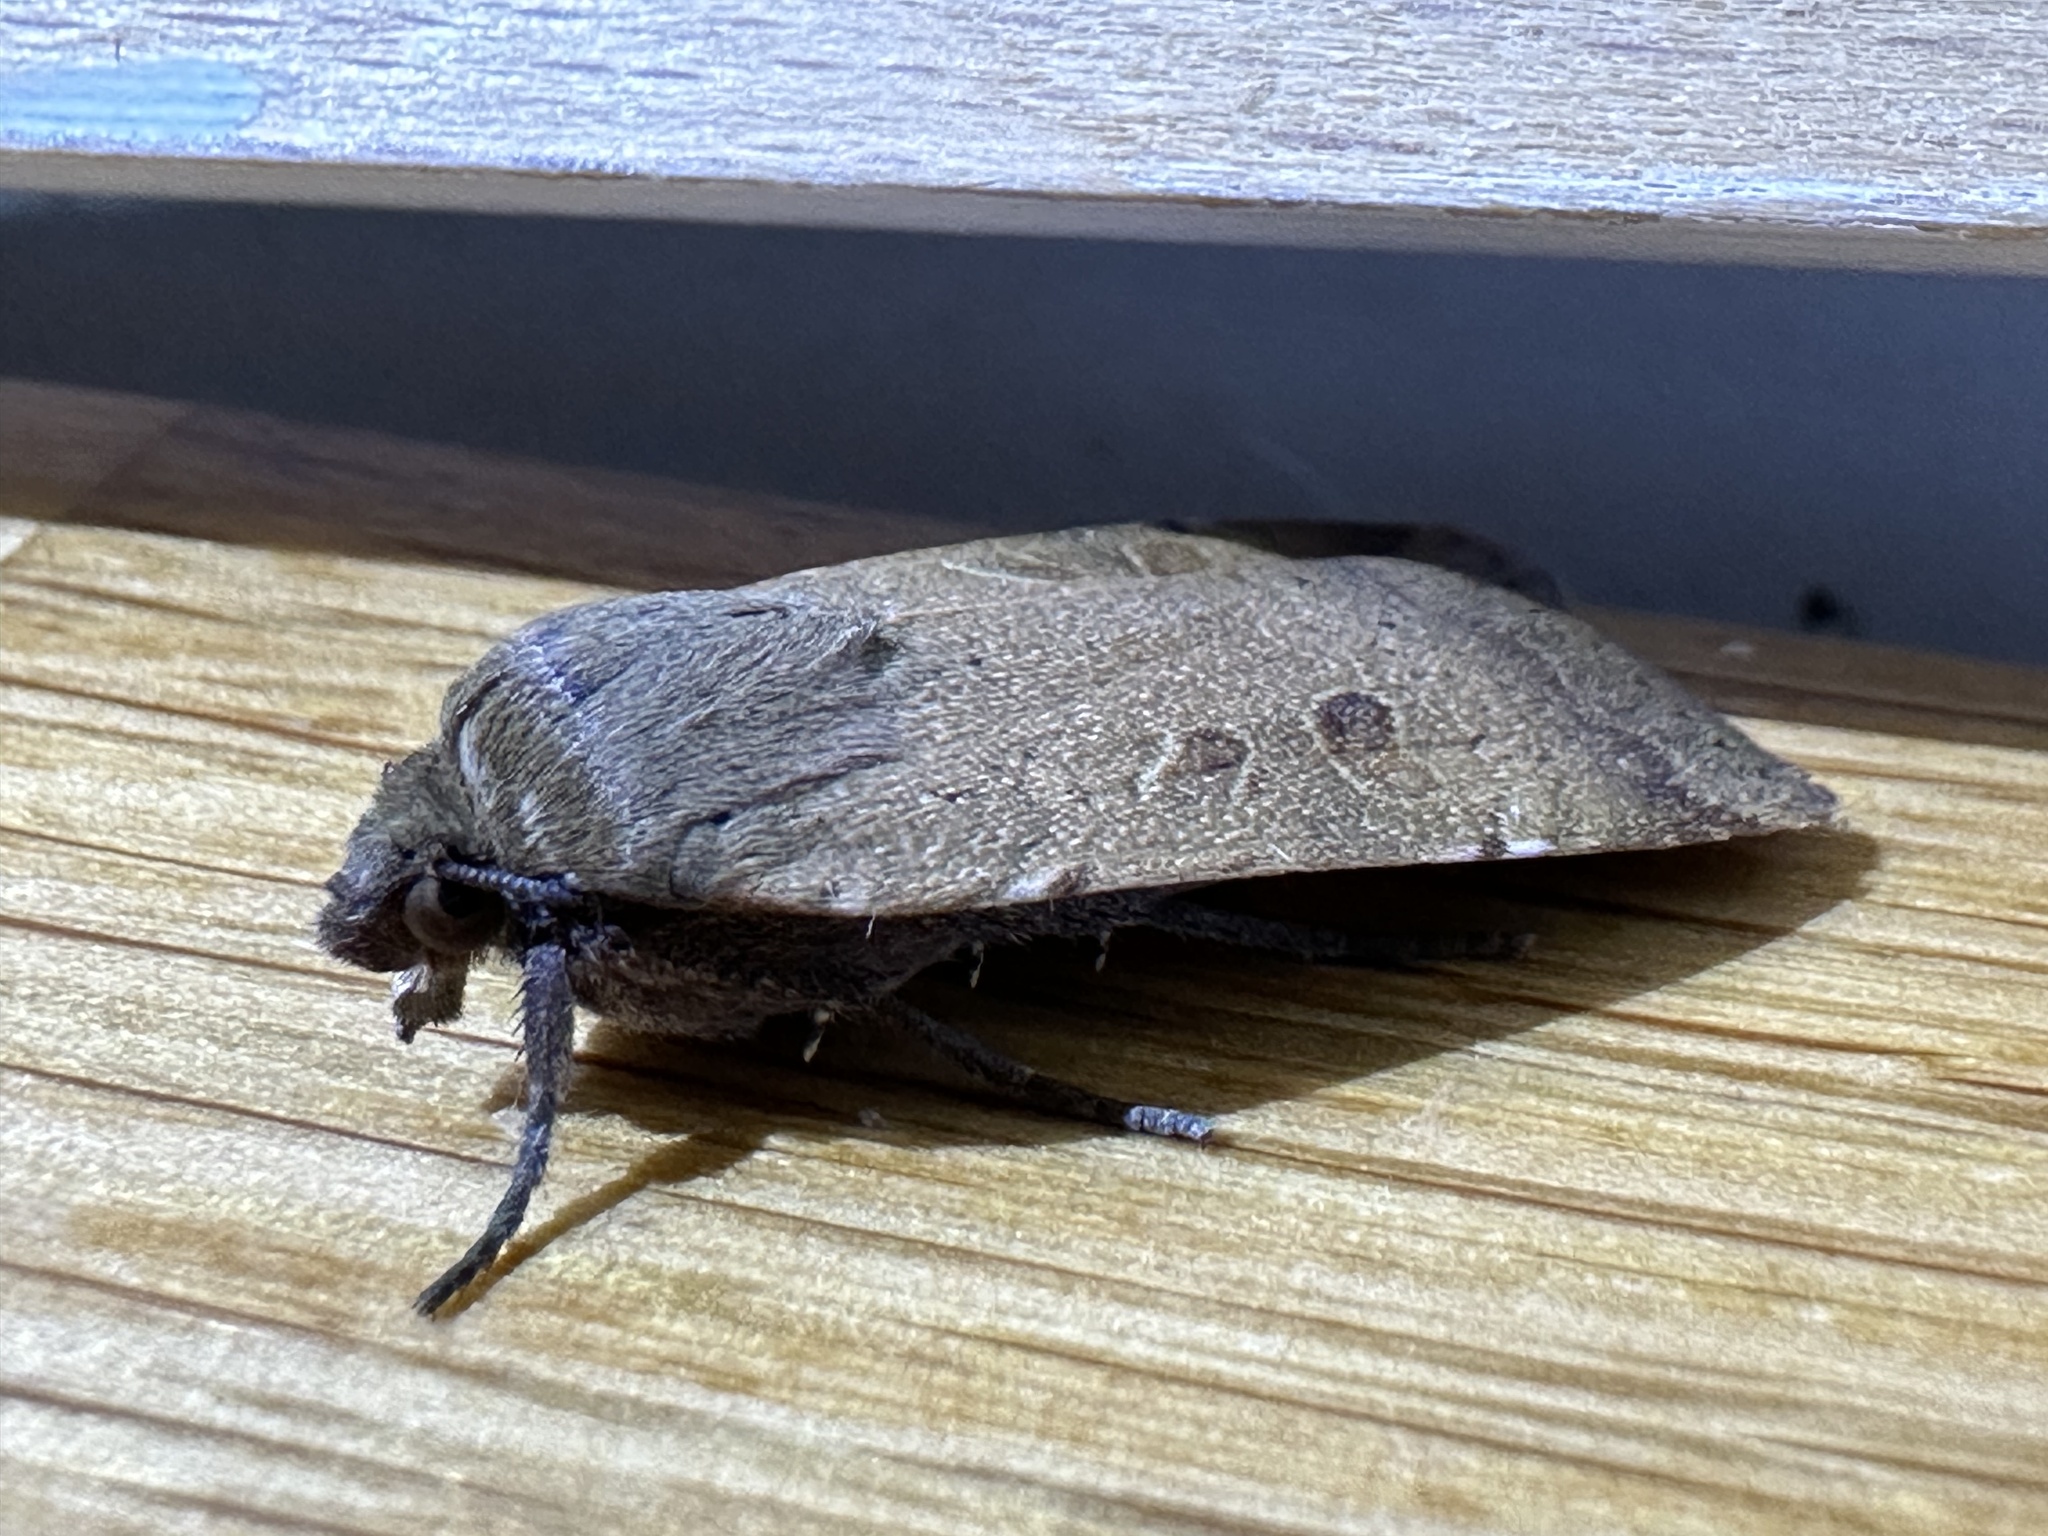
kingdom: Animalia
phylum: Arthropoda
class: Insecta
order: Lepidoptera
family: Noctuidae
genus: Noctua
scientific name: Noctua comes
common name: Lesser yellow underwing
